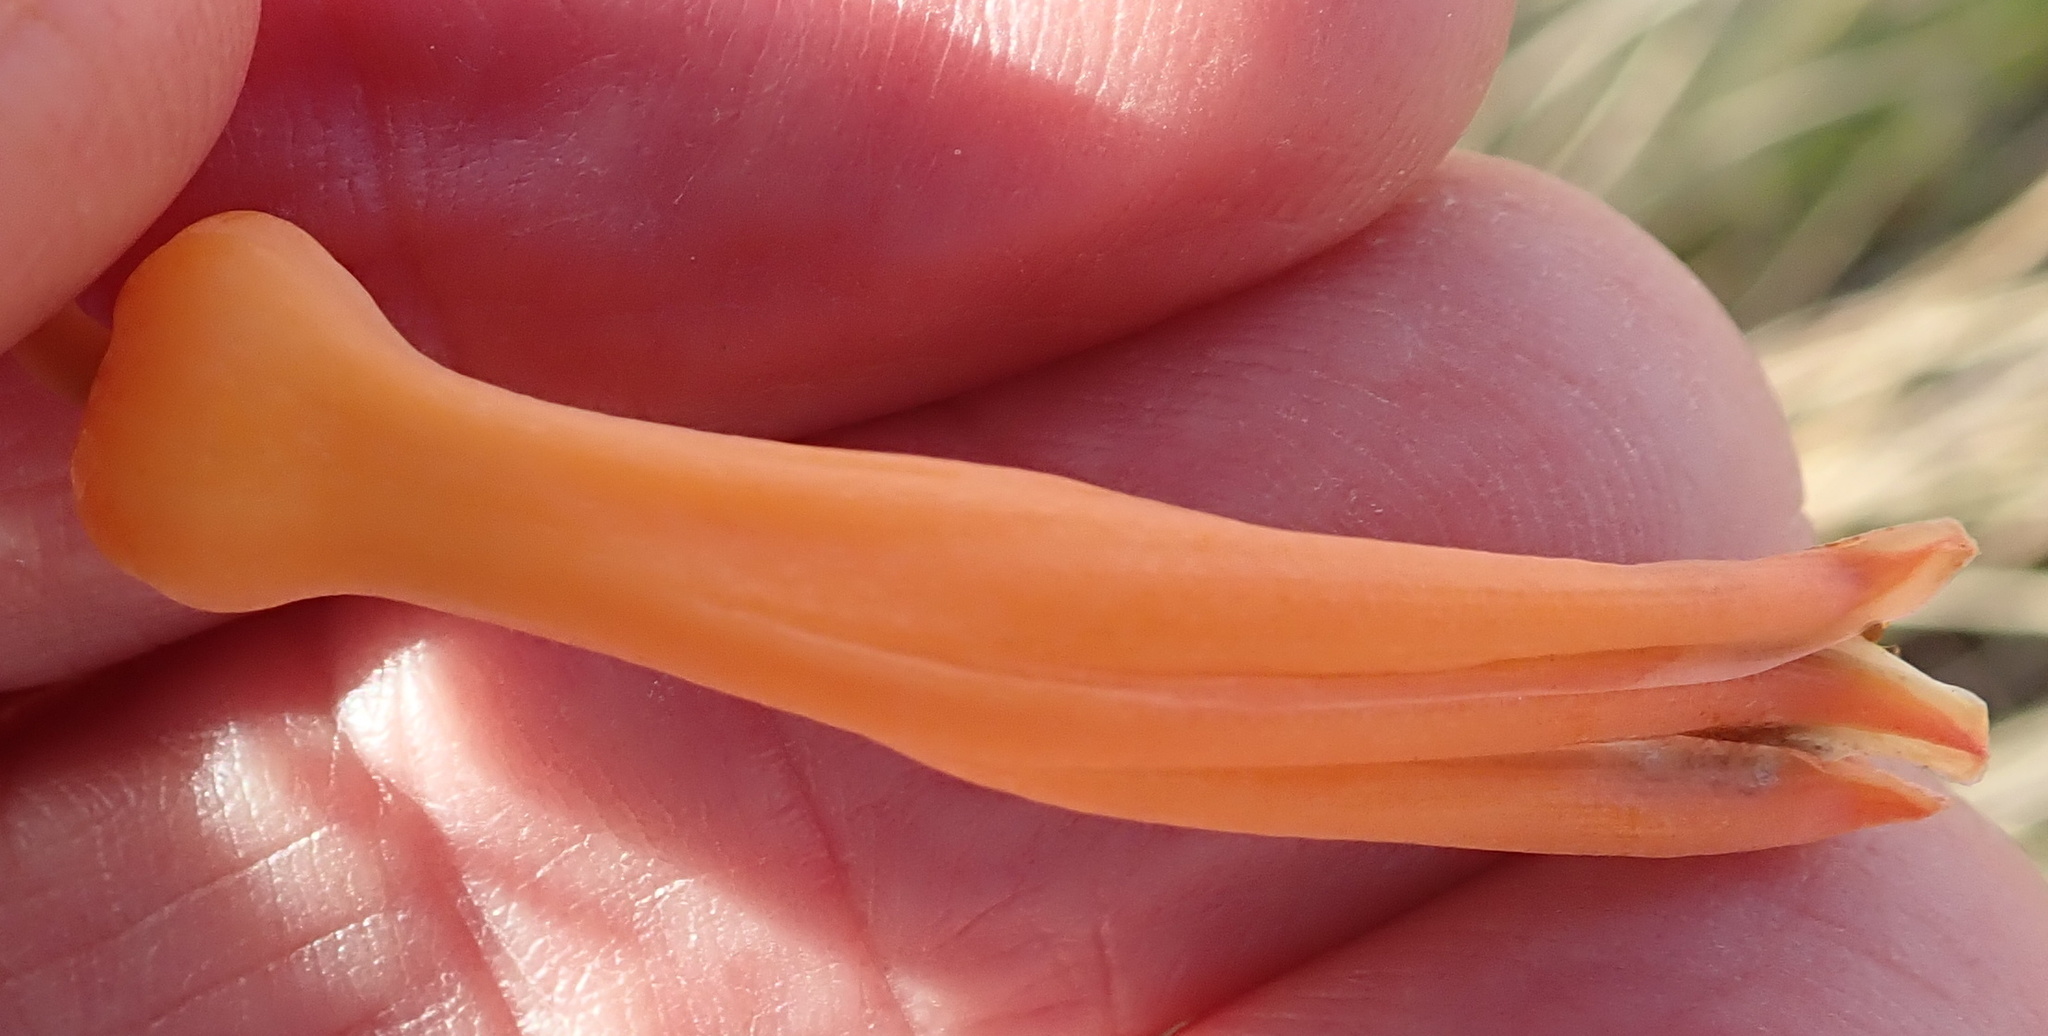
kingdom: Plantae
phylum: Tracheophyta
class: Liliopsida
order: Asparagales
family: Asphodelaceae
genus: Aloe
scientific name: Aloe maculata
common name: Broadleaf aloe
